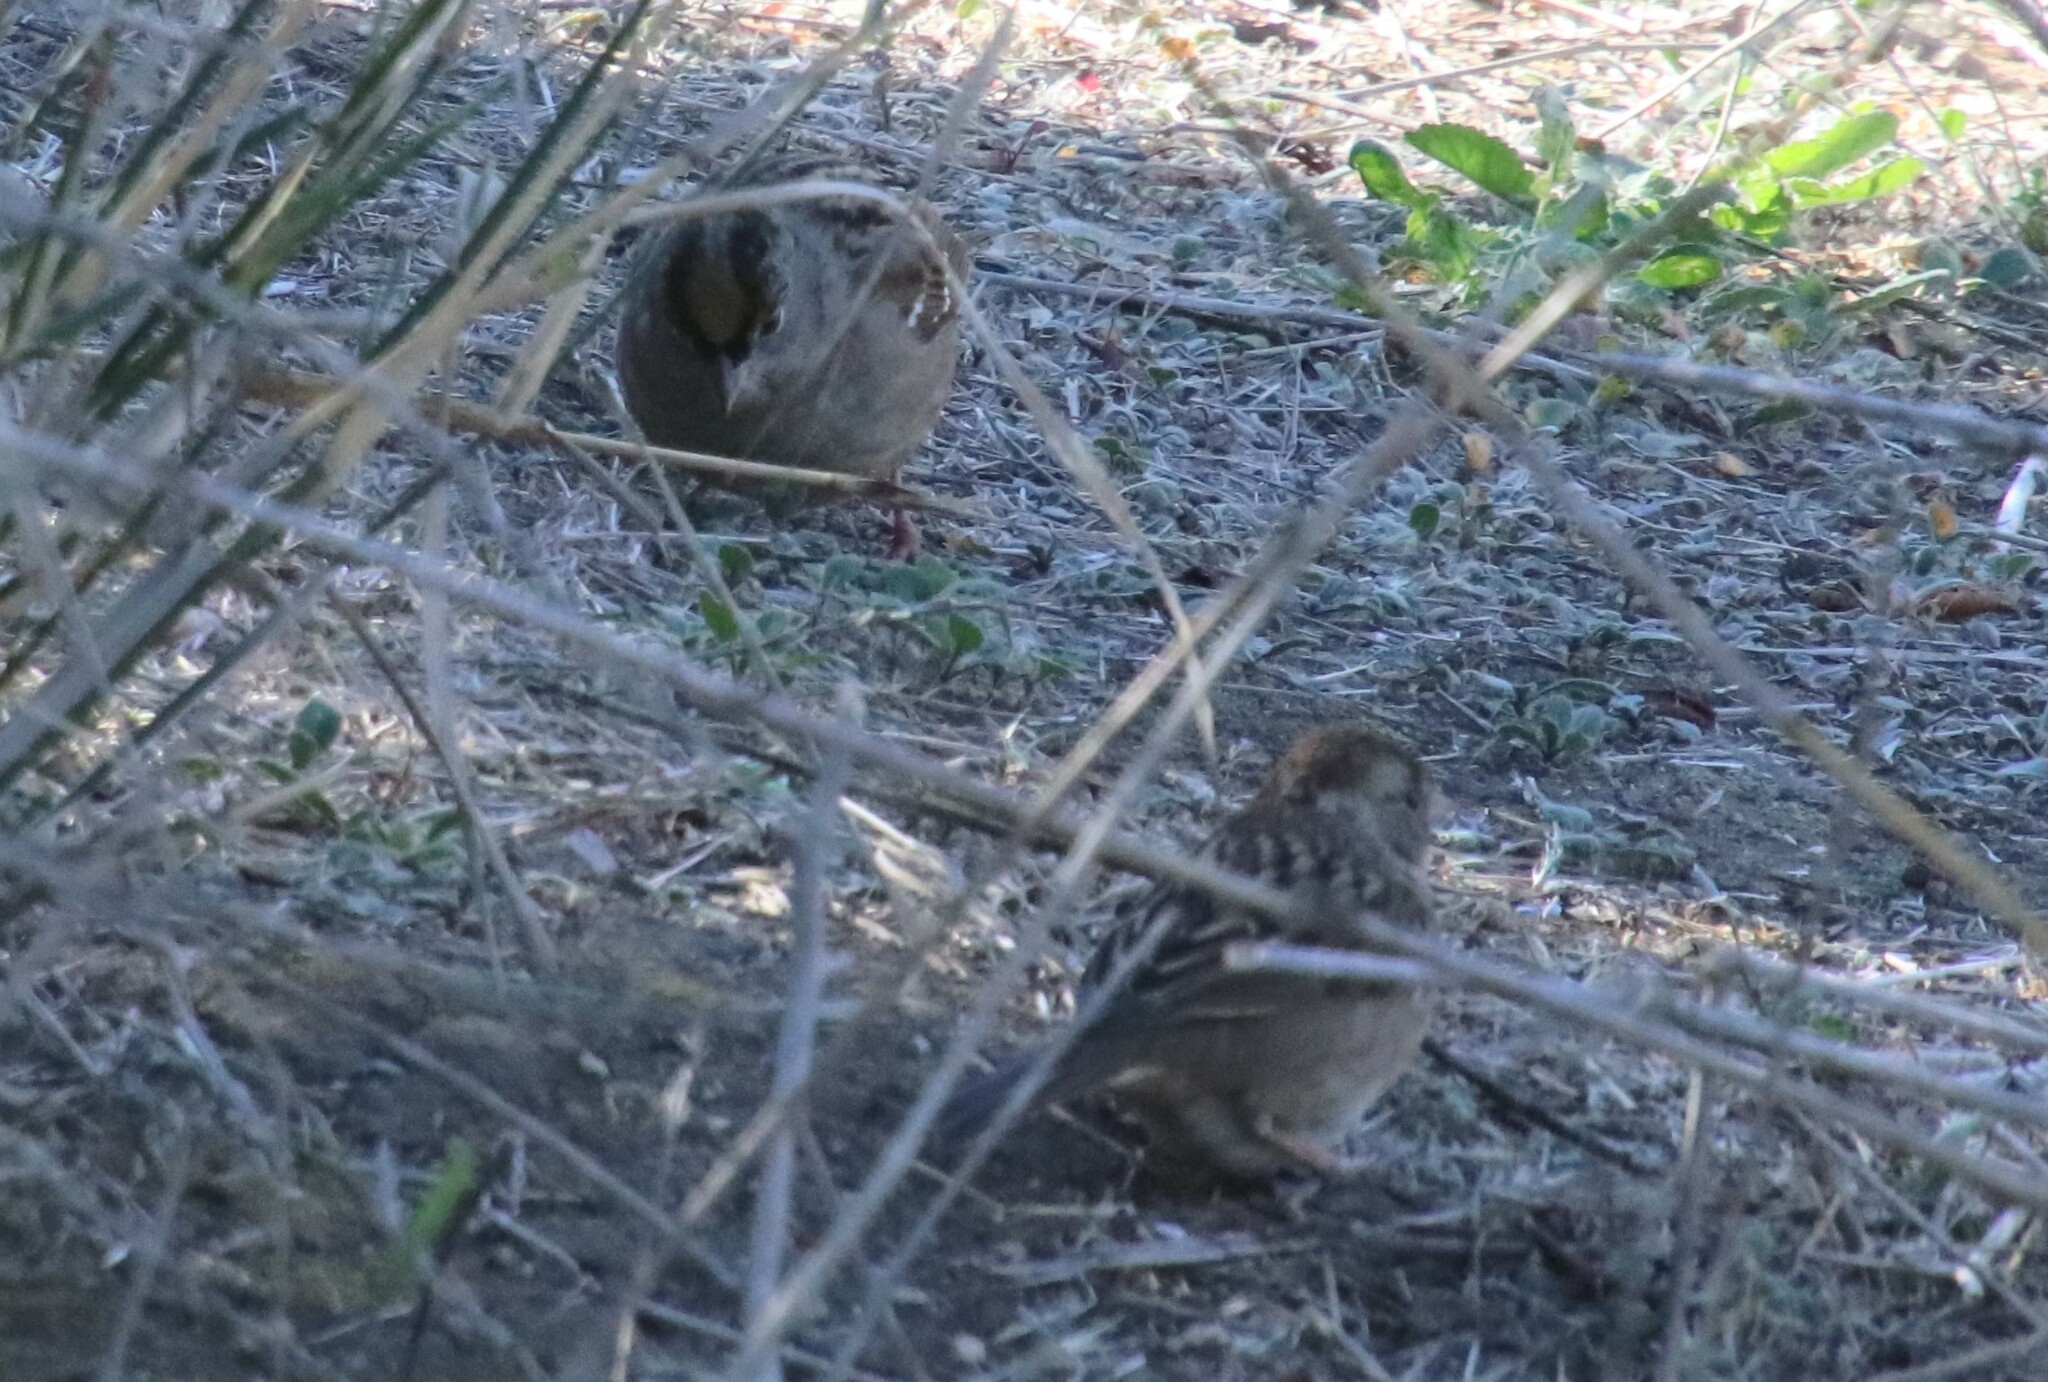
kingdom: Animalia
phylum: Chordata
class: Aves
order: Passeriformes
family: Passerellidae
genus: Zonotrichia
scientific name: Zonotrichia atricapilla
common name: Golden-crowned sparrow
